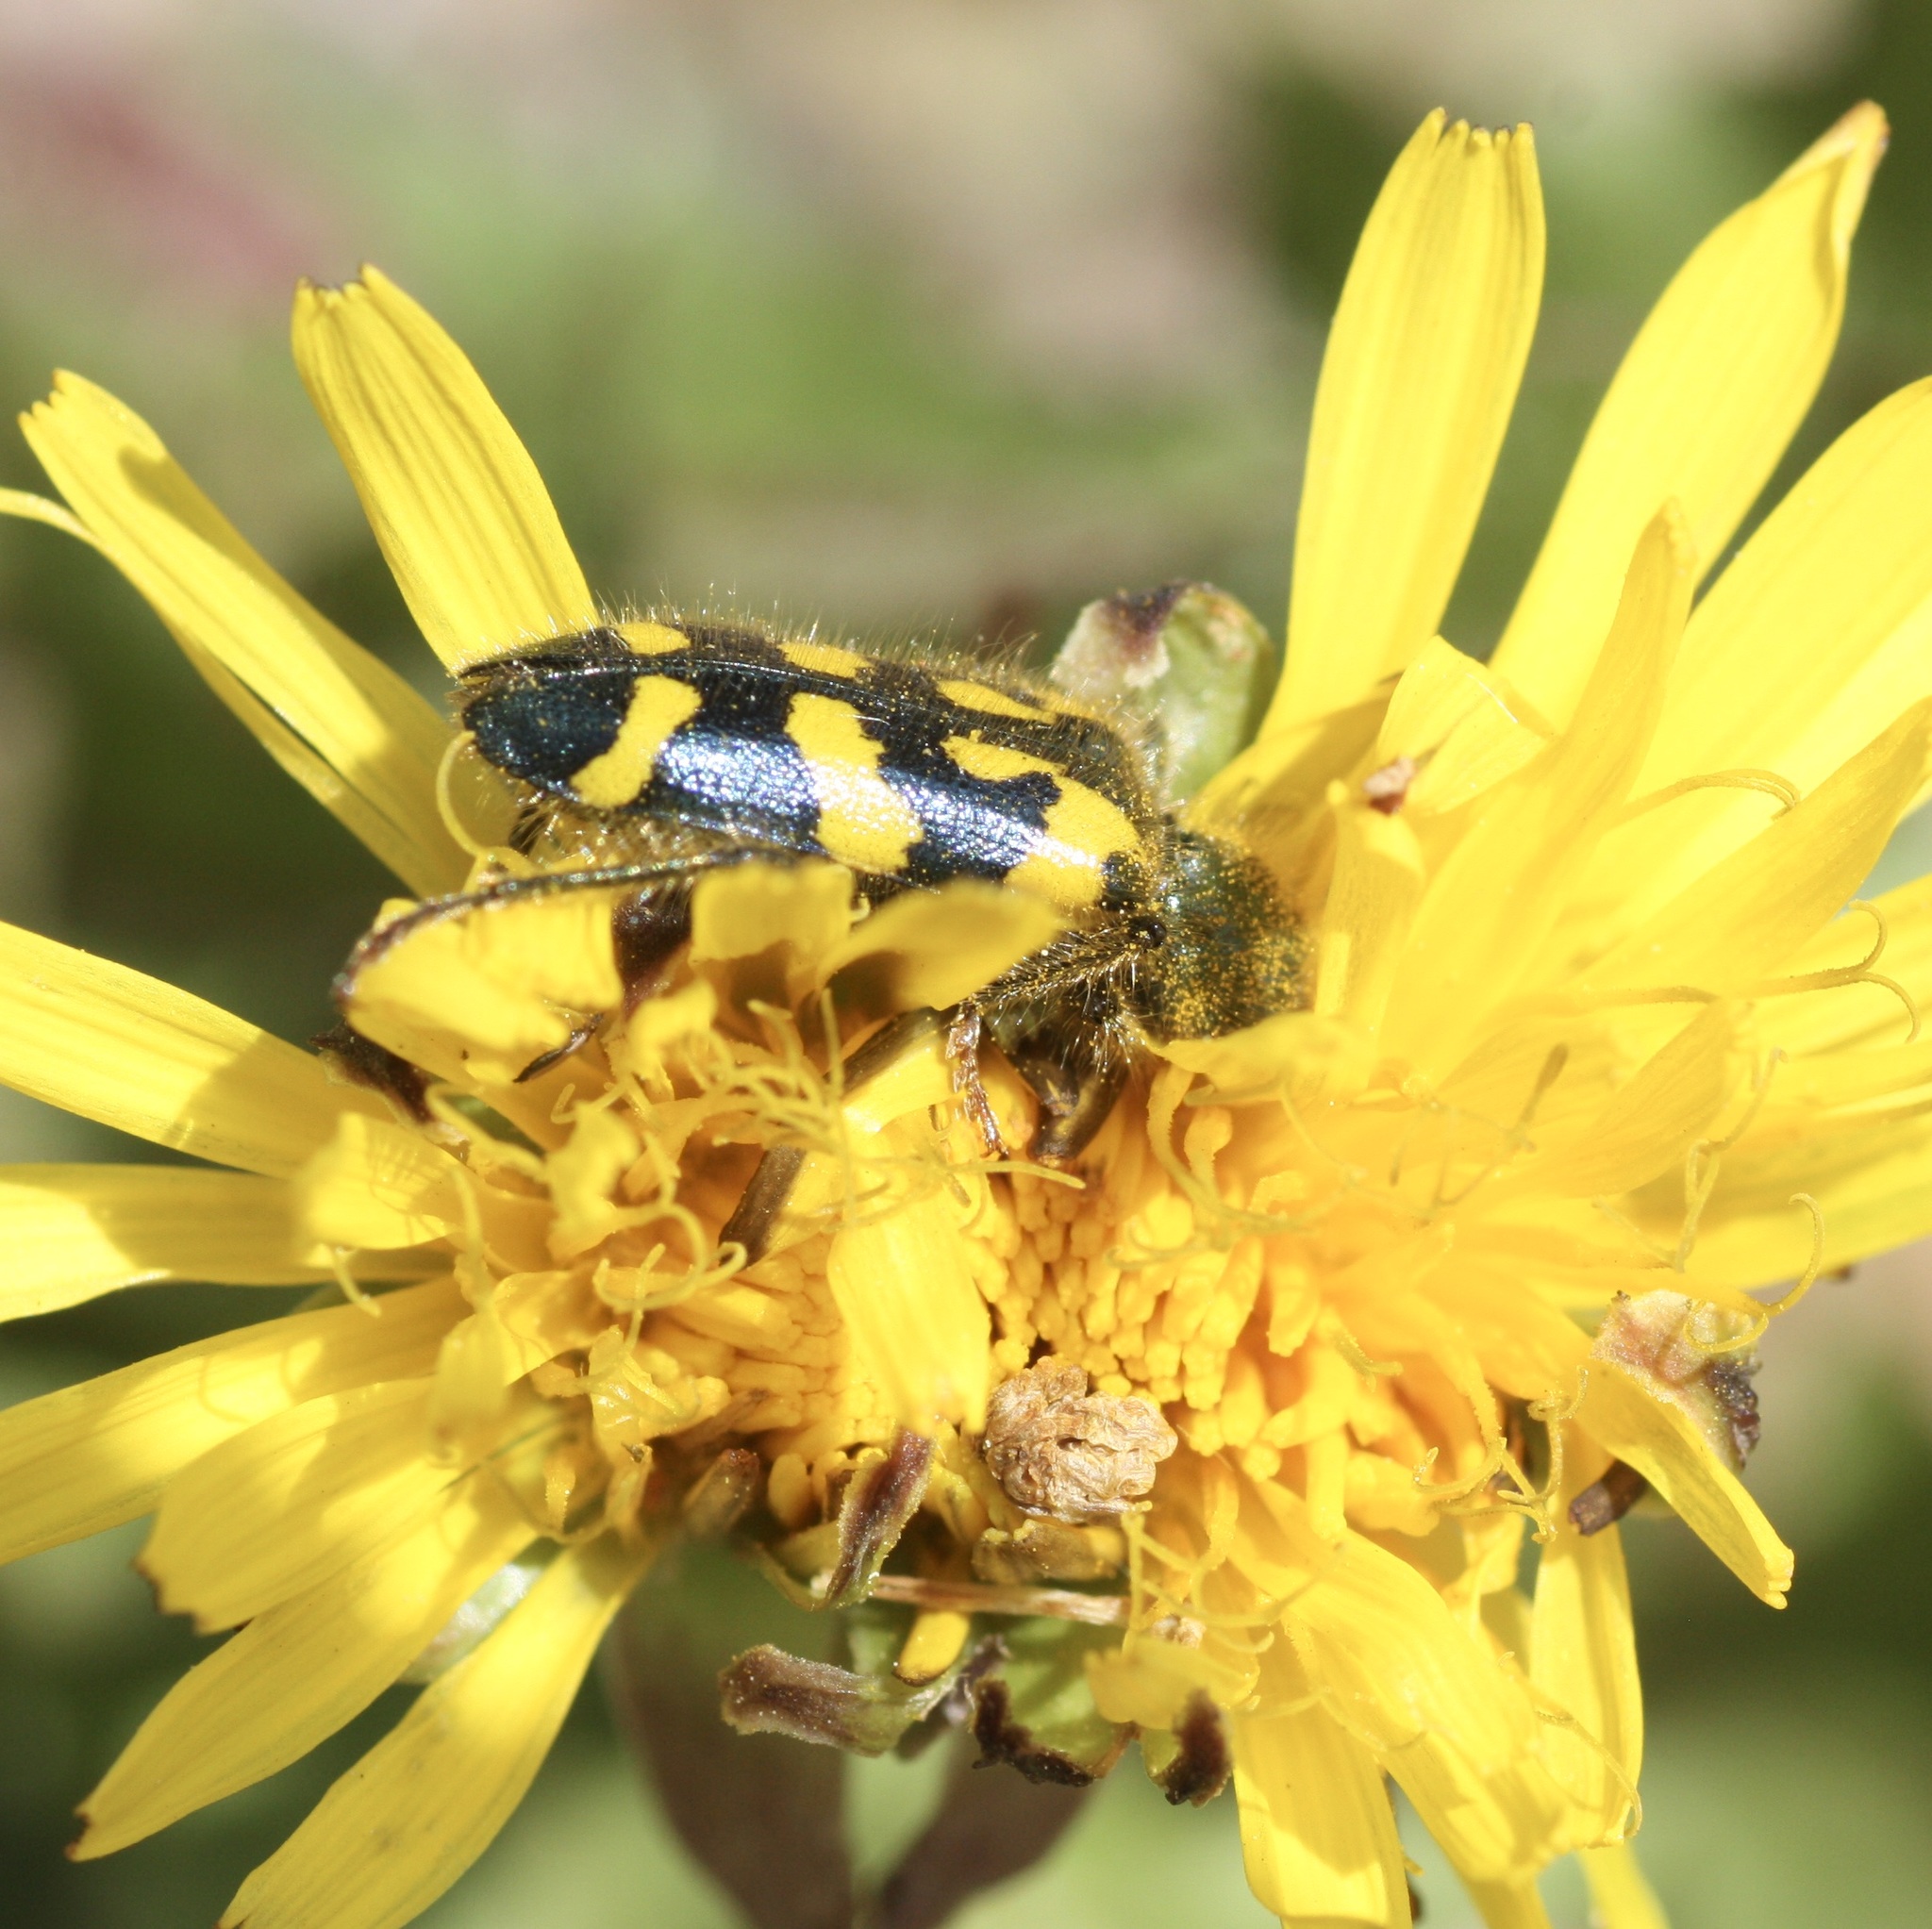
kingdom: Animalia
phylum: Arthropoda
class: Insecta
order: Coleoptera
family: Cleridae
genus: Trichodes
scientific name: Trichodes ornatus
